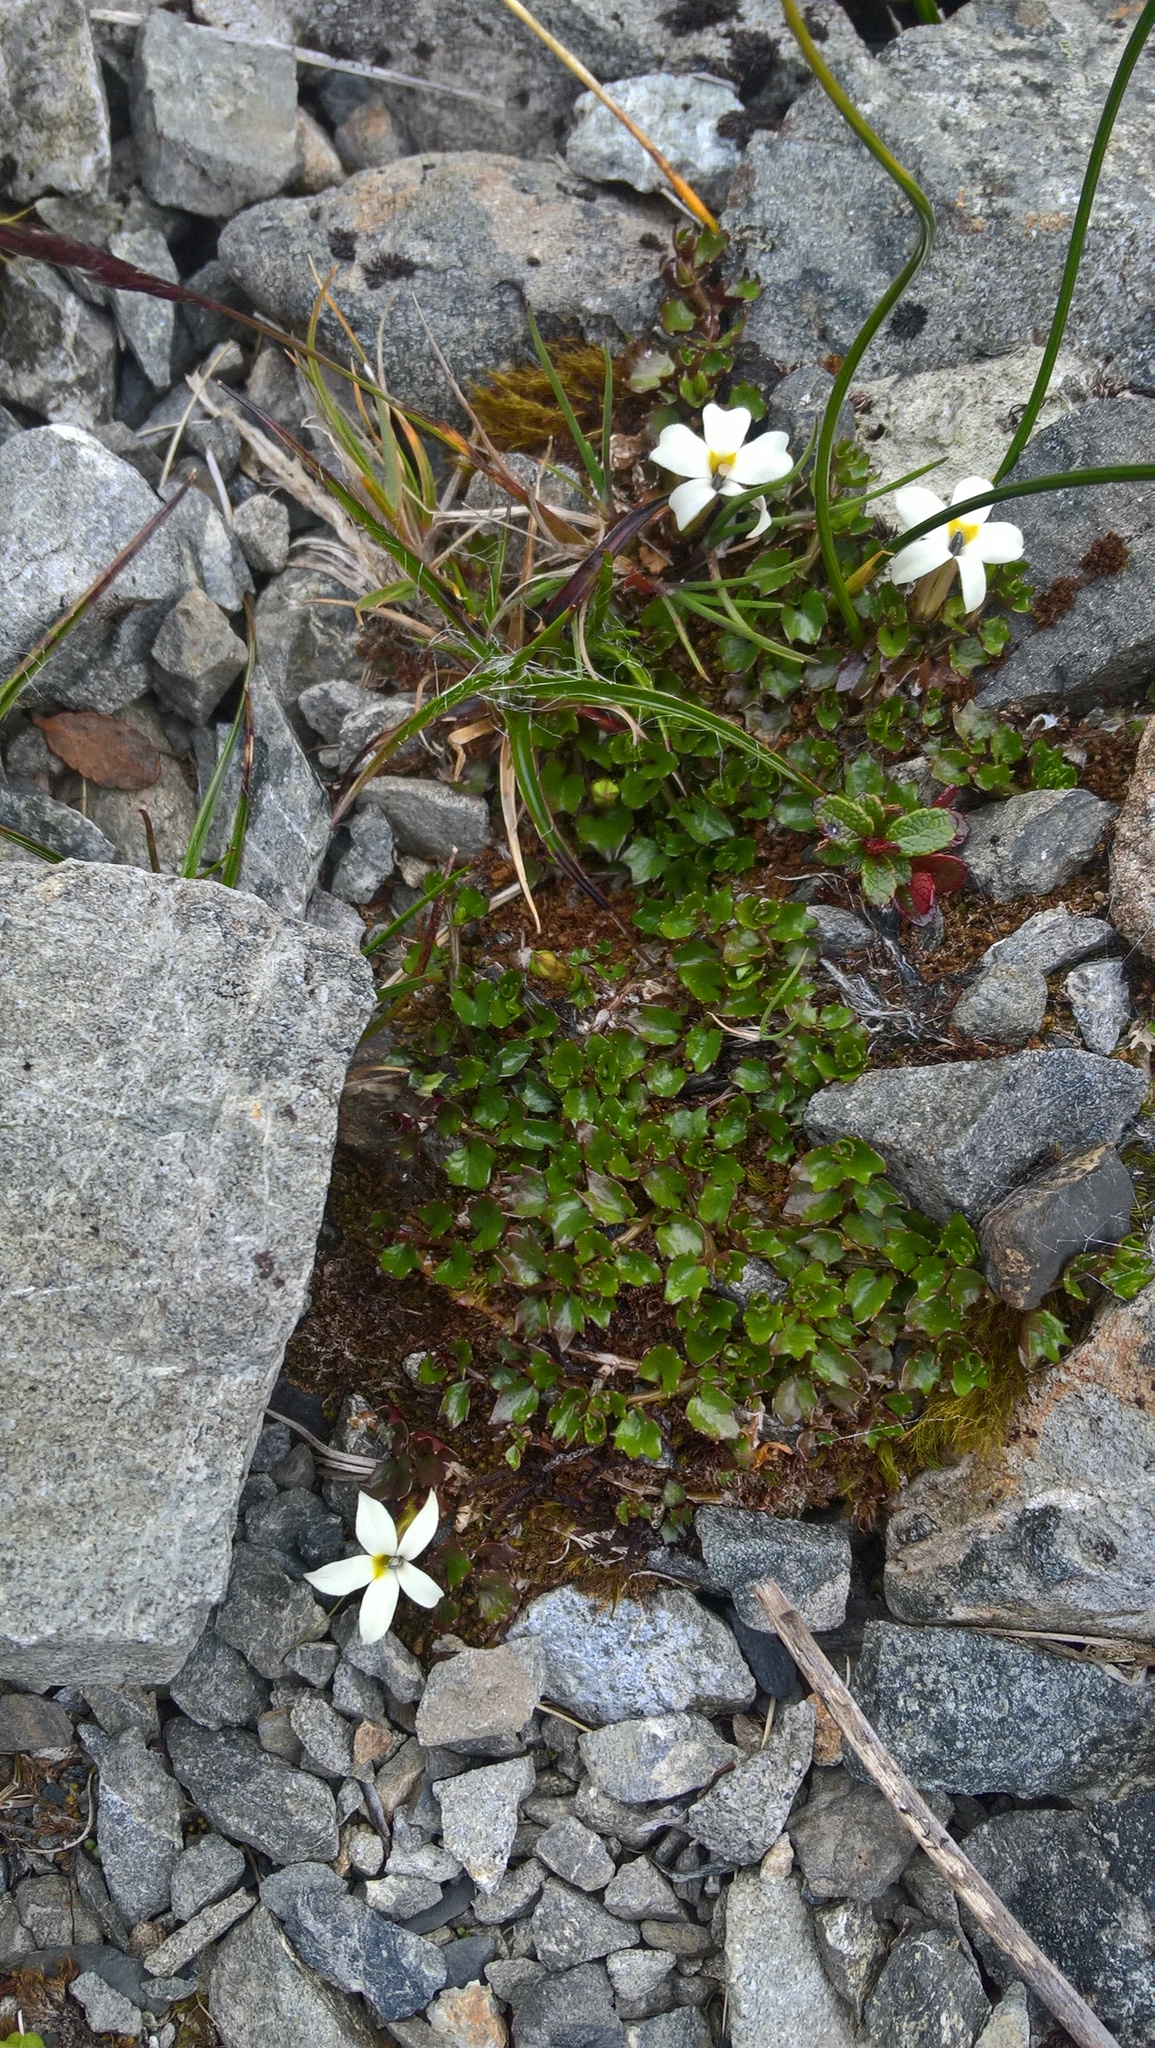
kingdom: Plantae
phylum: Tracheophyta
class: Magnoliopsida
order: Asterales
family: Campanulaceae
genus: Lobelia
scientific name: Lobelia macrodon
